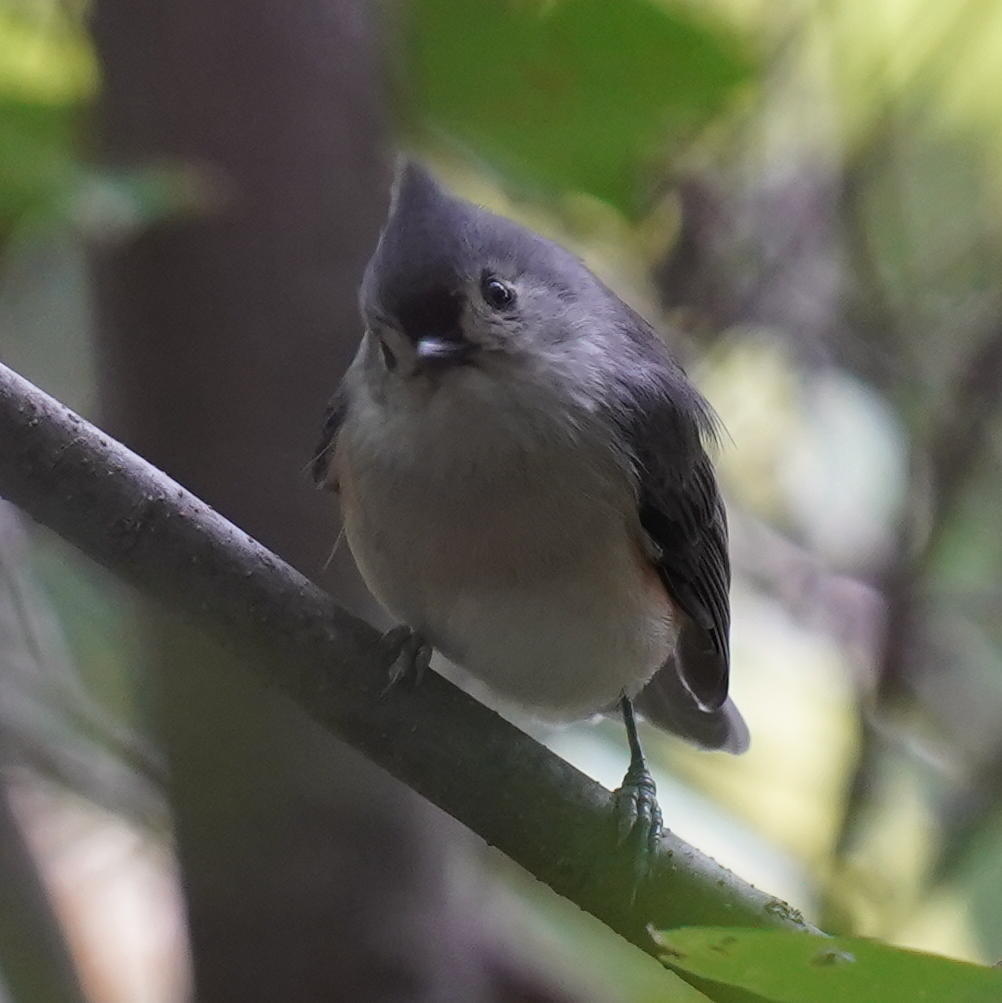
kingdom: Animalia
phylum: Chordata
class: Aves
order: Passeriformes
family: Paridae
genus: Baeolophus
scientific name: Baeolophus bicolor
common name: Tufted titmouse
